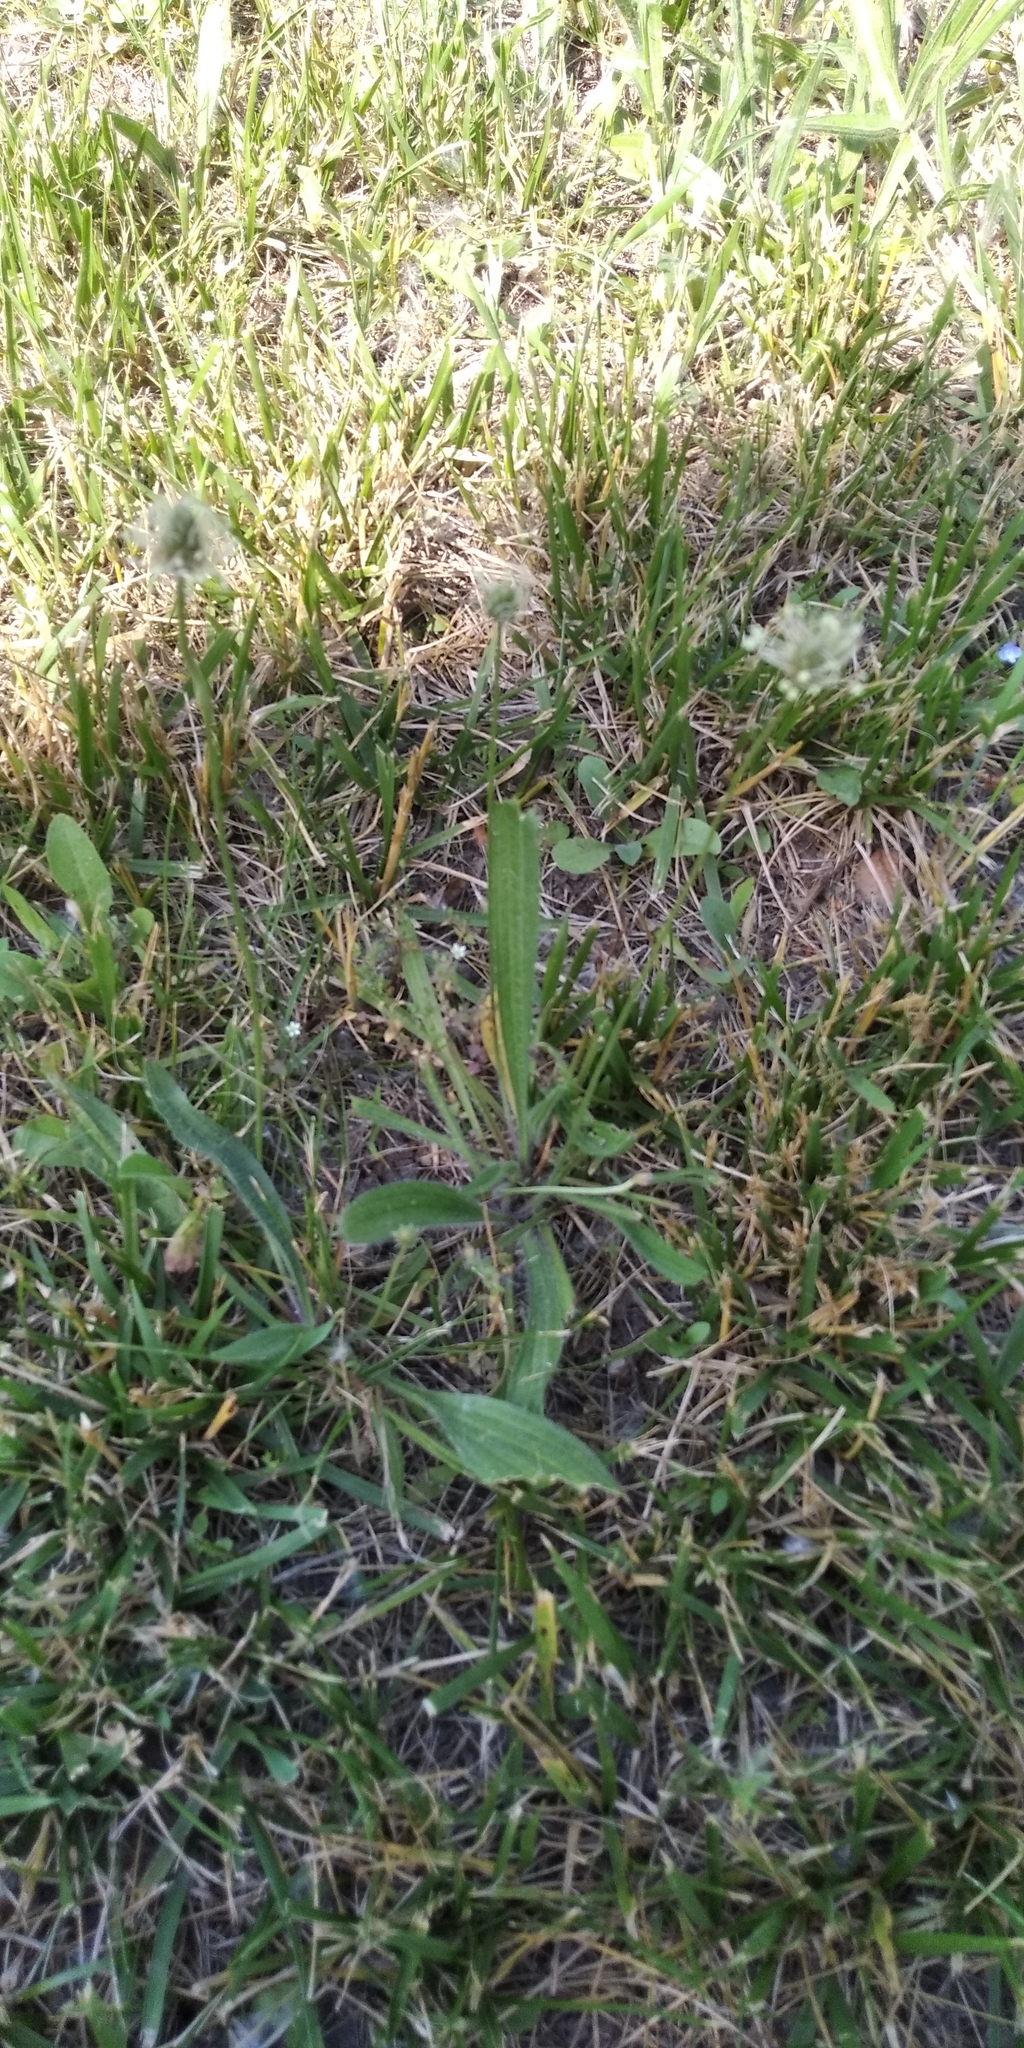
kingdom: Plantae
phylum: Tracheophyta
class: Magnoliopsida
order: Lamiales
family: Plantaginaceae
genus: Plantago
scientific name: Plantago lanceolata
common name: Ribwort plantain
